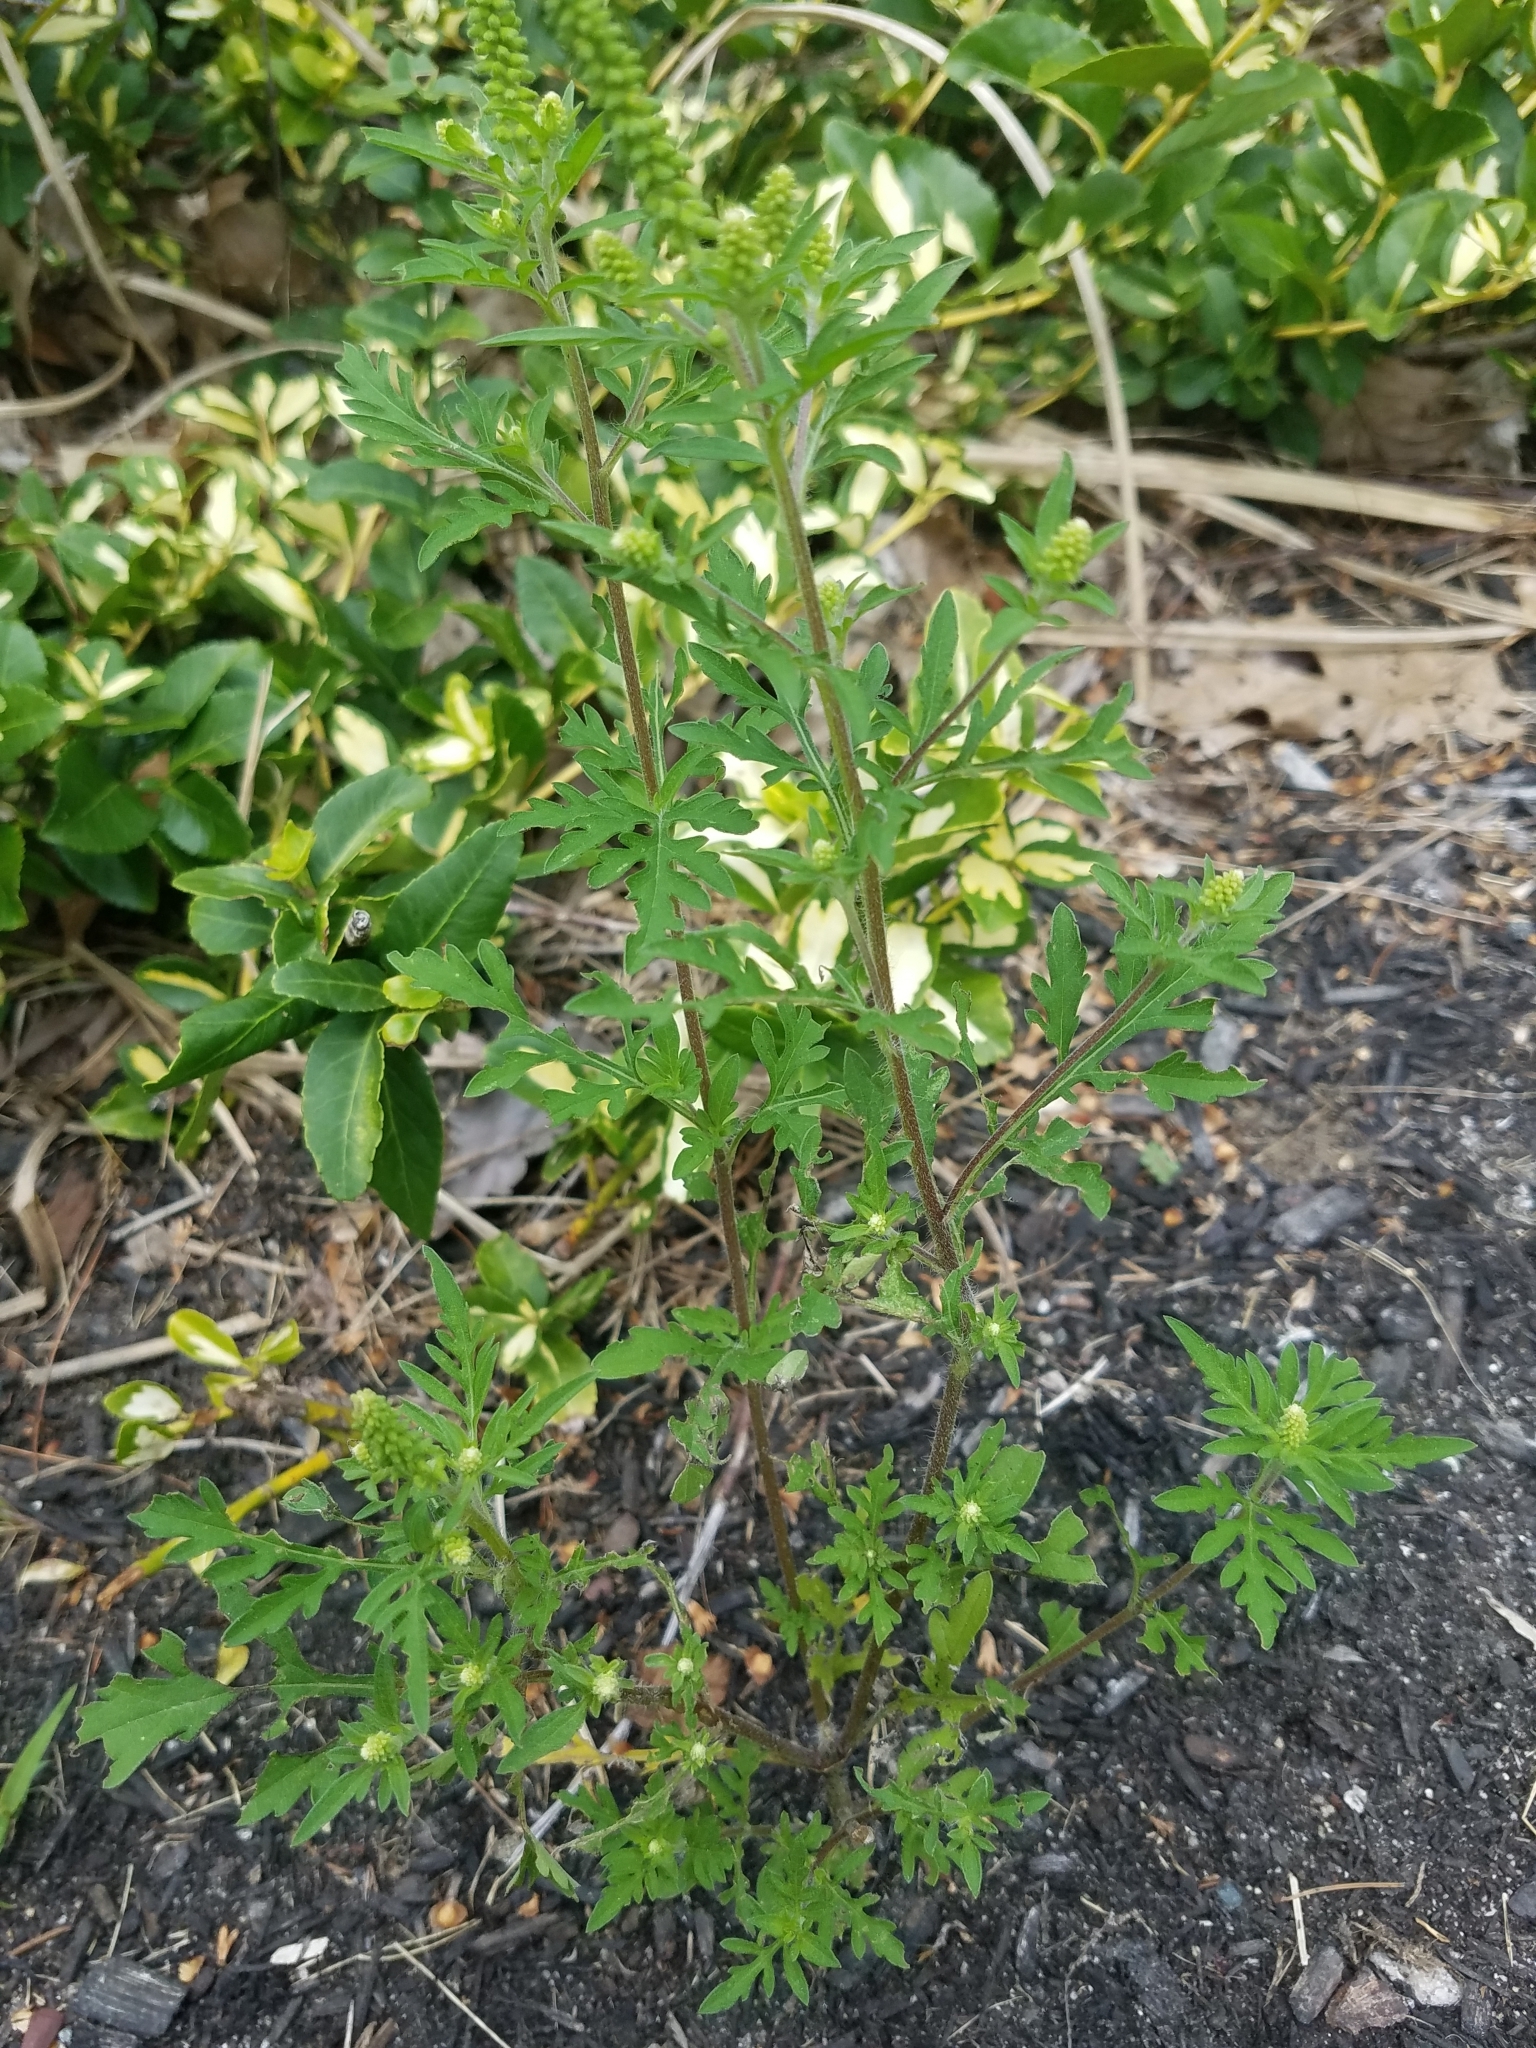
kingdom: Plantae
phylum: Tracheophyta
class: Magnoliopsida
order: Asterales
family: Asteraceae
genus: Ambrosia
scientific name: Ambrosia artemisiifolia
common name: Annual ragweed
